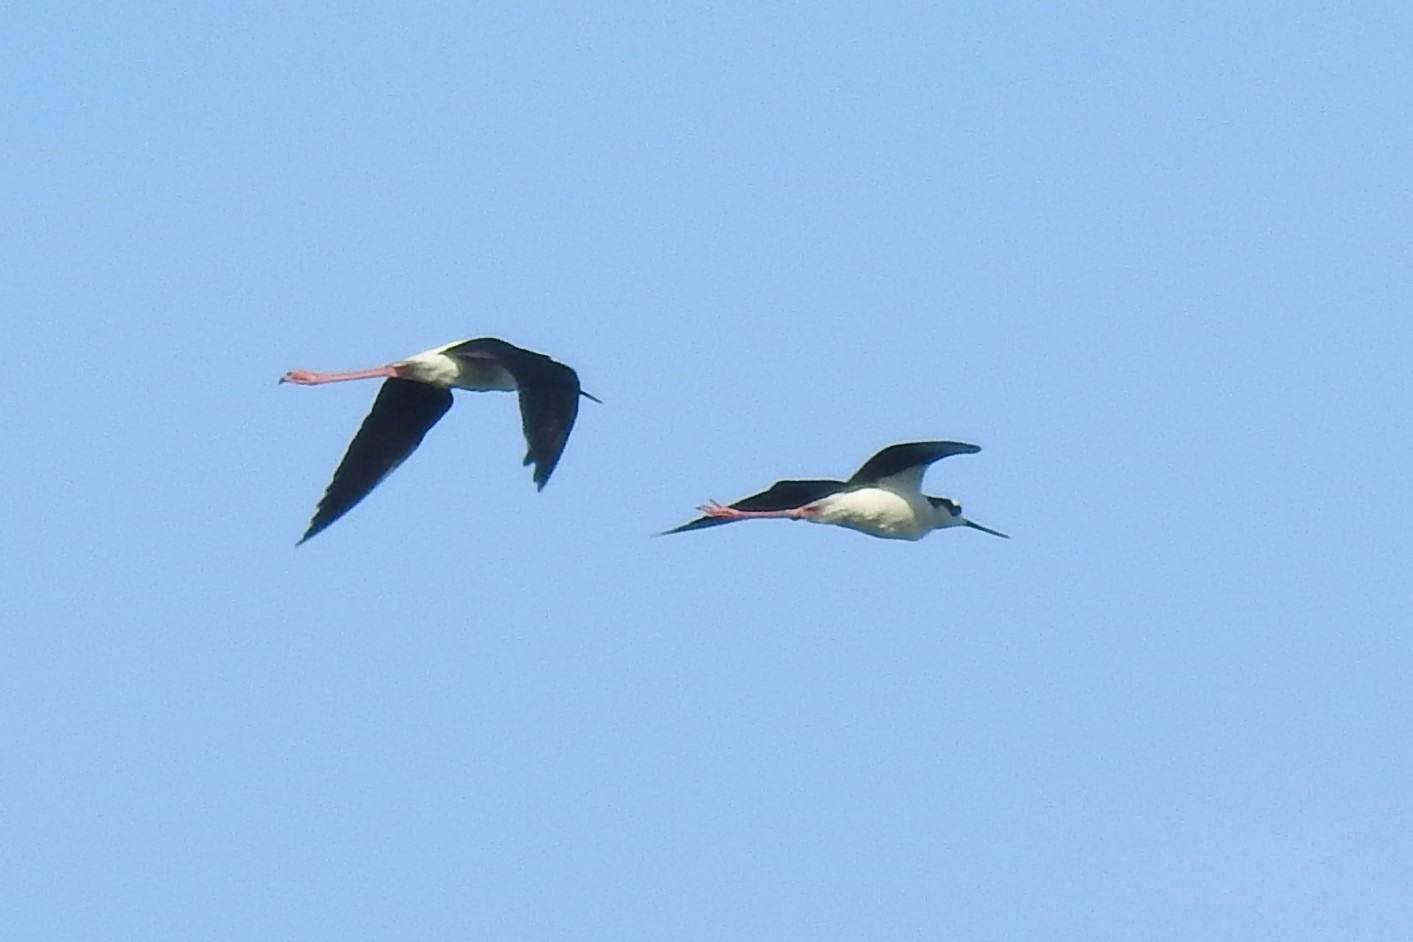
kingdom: Animalia
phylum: Chordata
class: Aves
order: Charadriiformes
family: Recurvirostridae
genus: Himantopus
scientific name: Himantopus mexicanus
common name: Black-necked stilt
